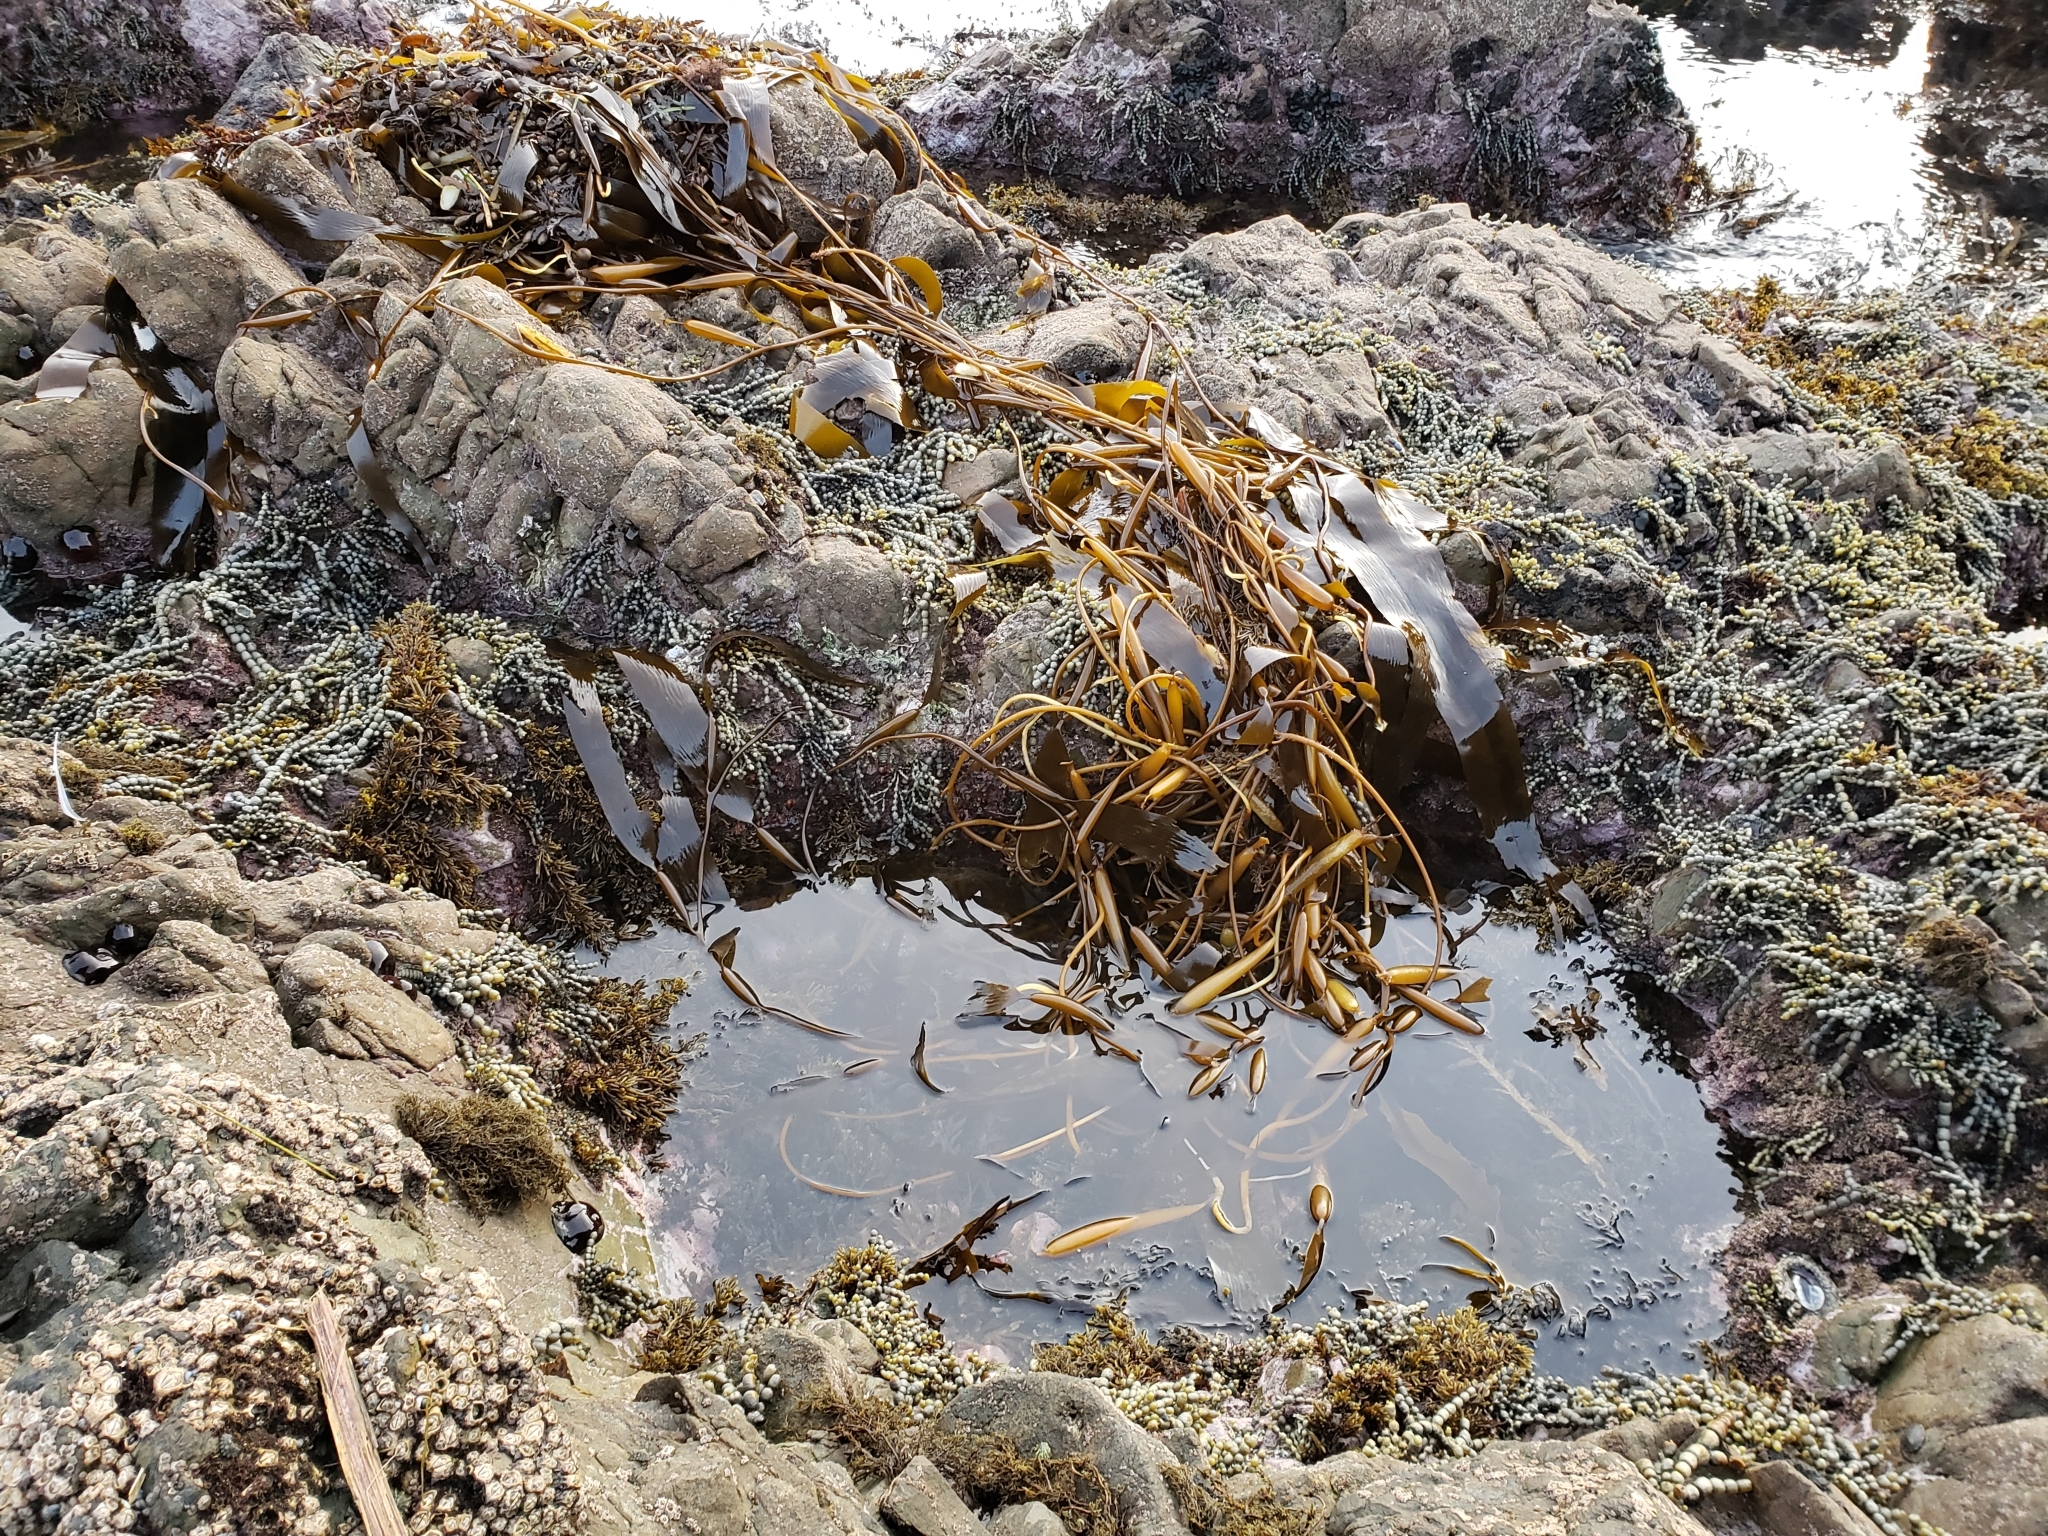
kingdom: Chromista
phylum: Ochrophyta
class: Phaeophyceae
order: Laminariales
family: Laminariaceae
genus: Macrocystis
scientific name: Macrocystis pyrifera
